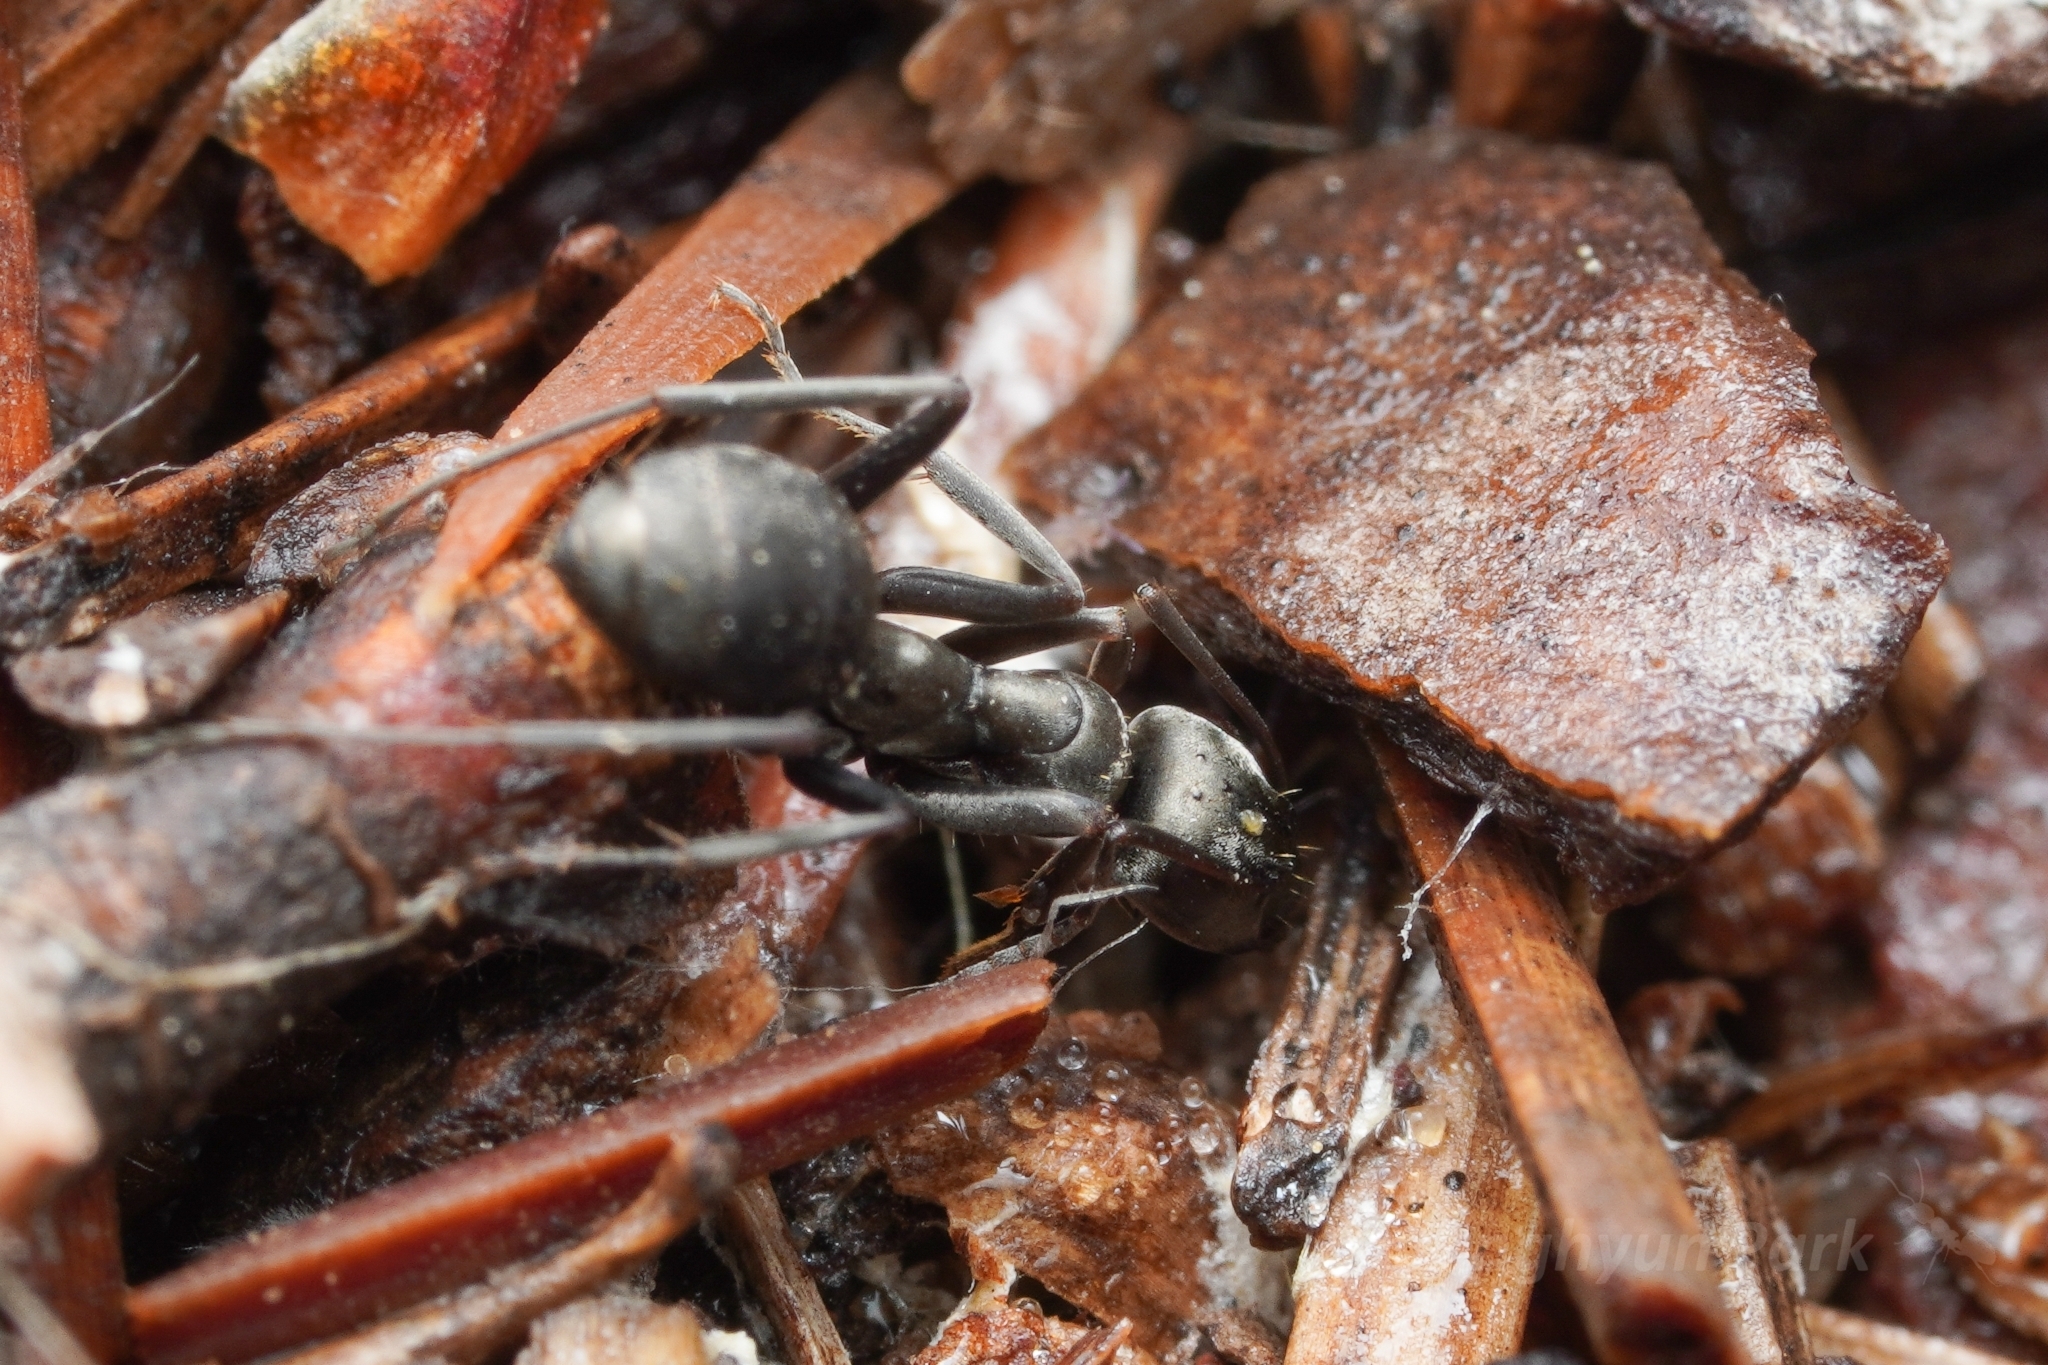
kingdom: Animalia
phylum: Arthropoda
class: Insecta
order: Hymenoptera
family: Formicidae
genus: Formica
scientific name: Formica occulta
